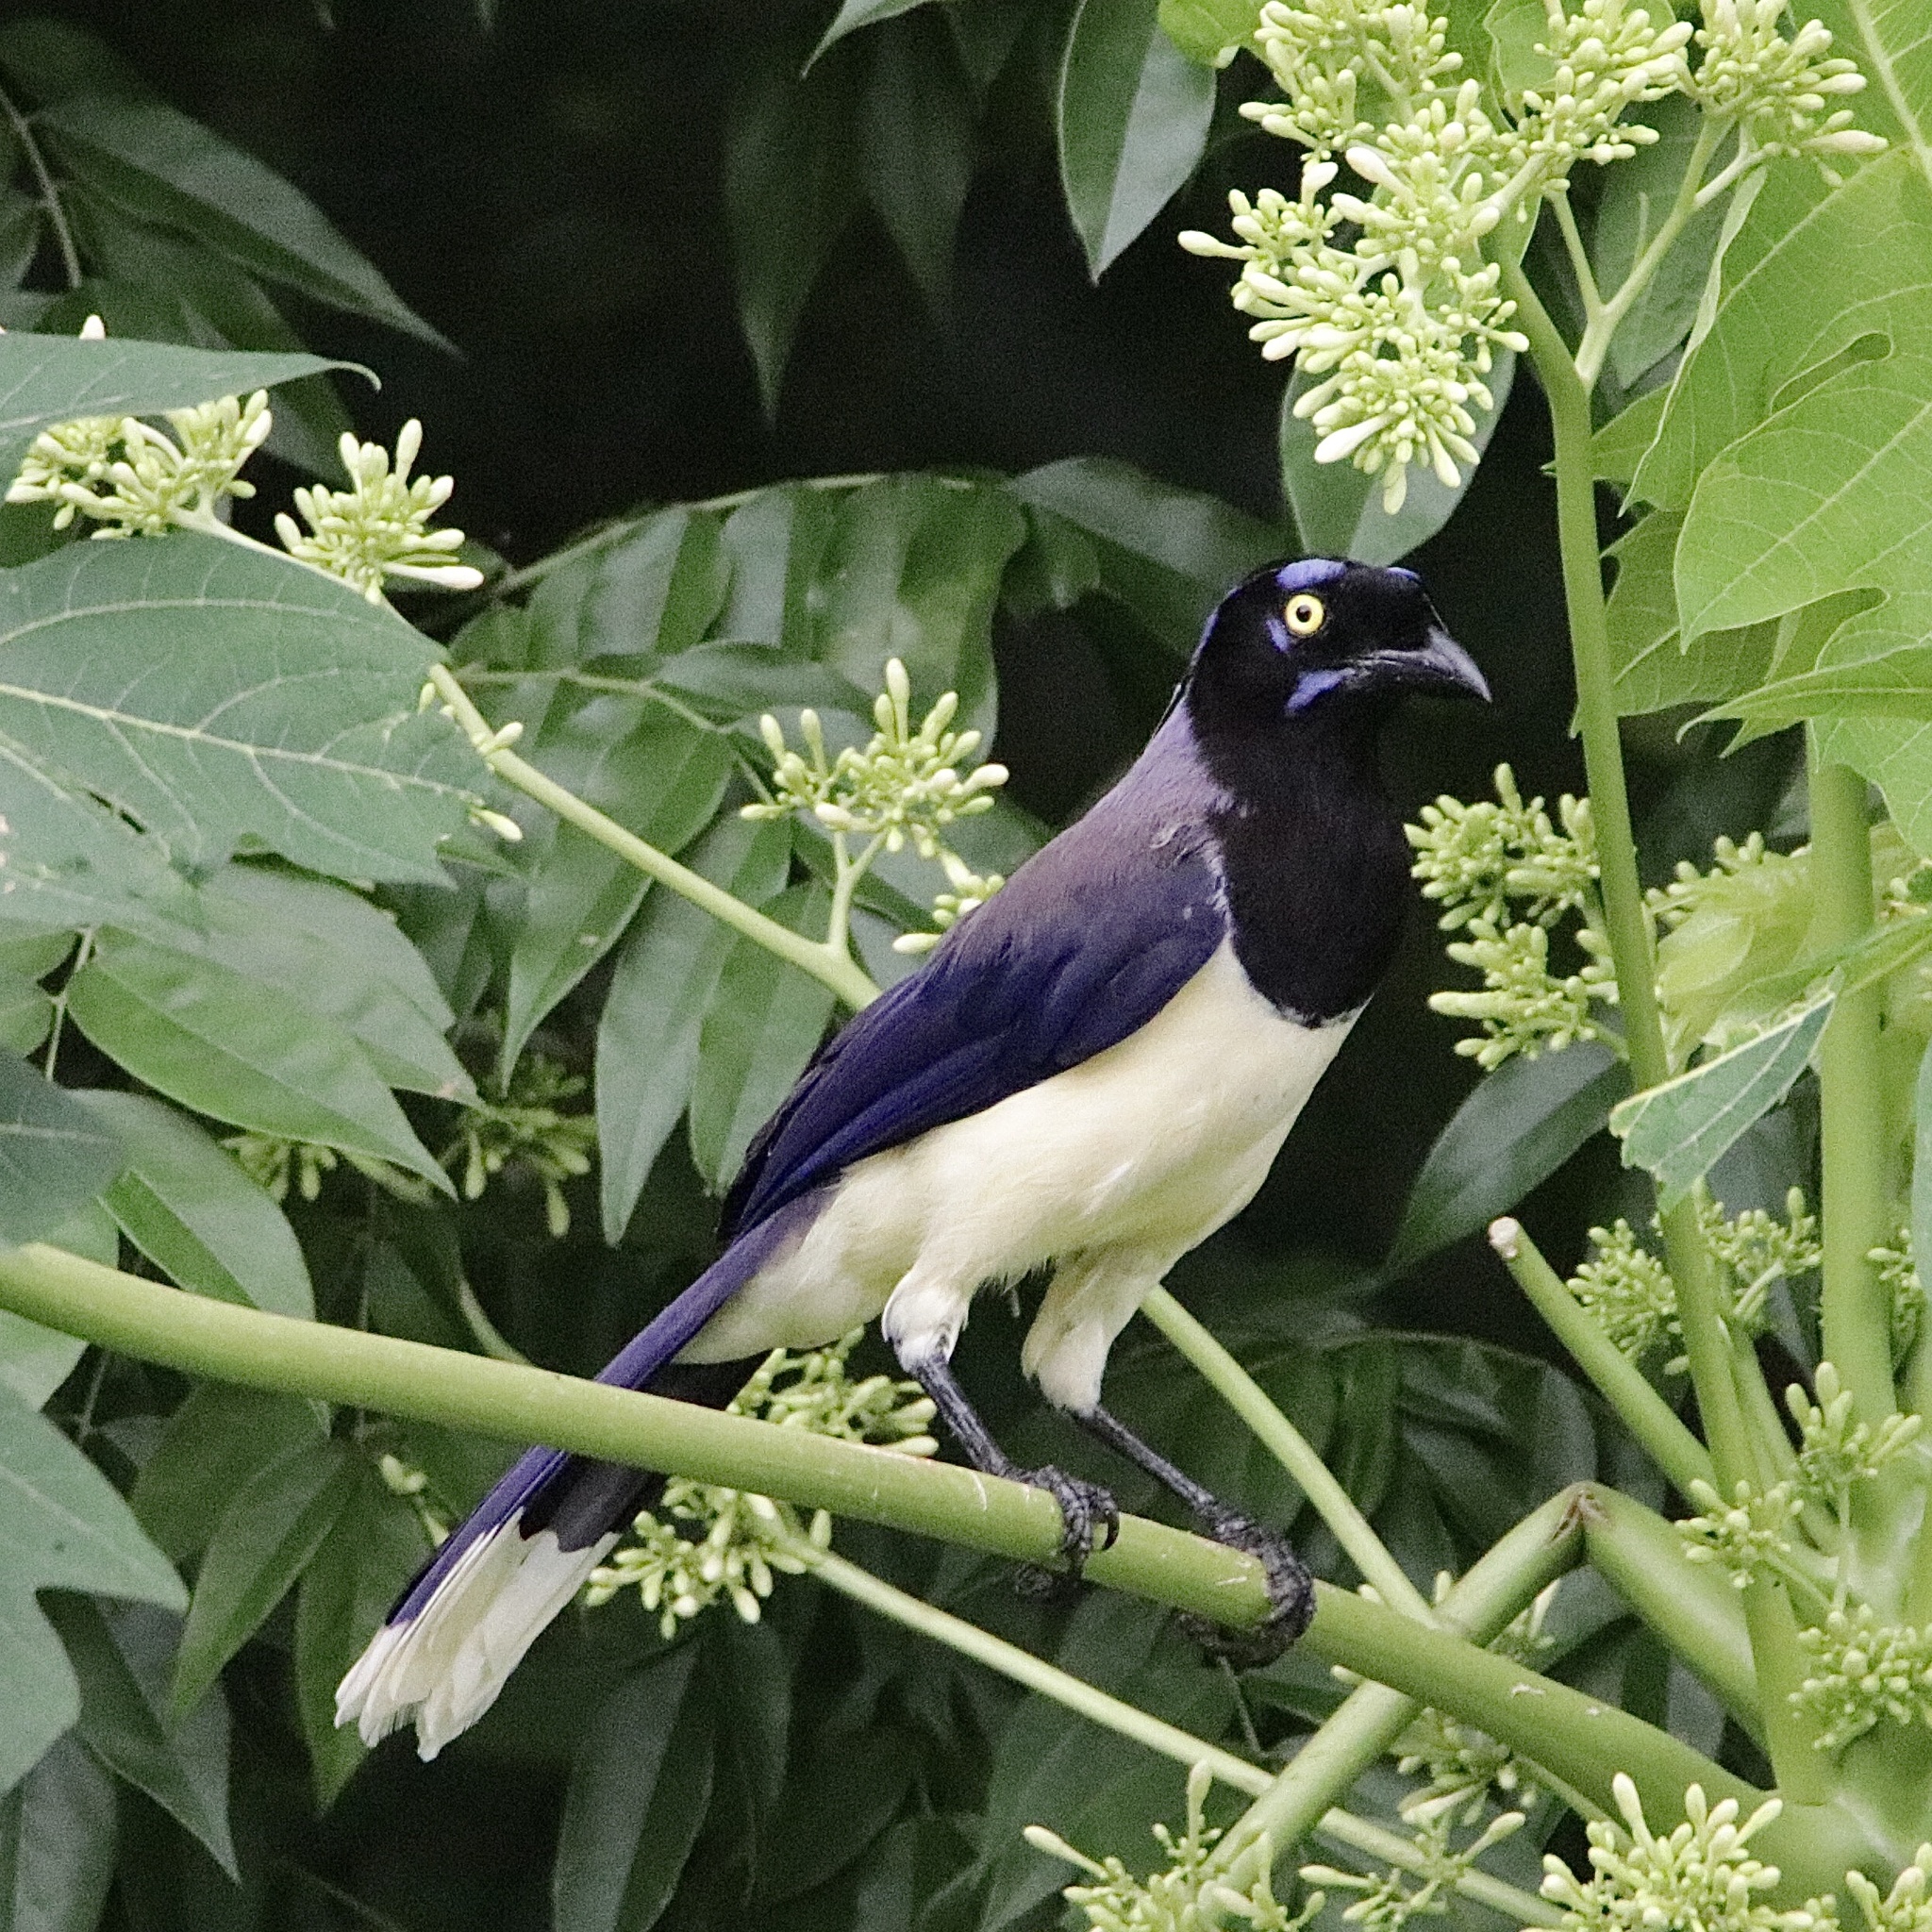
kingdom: Animalia
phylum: Chordata
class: Aves
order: Passeriformes
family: Corvidae
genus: Cyanocorax
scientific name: Cyanocorax affinis
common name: Black-chested jay
